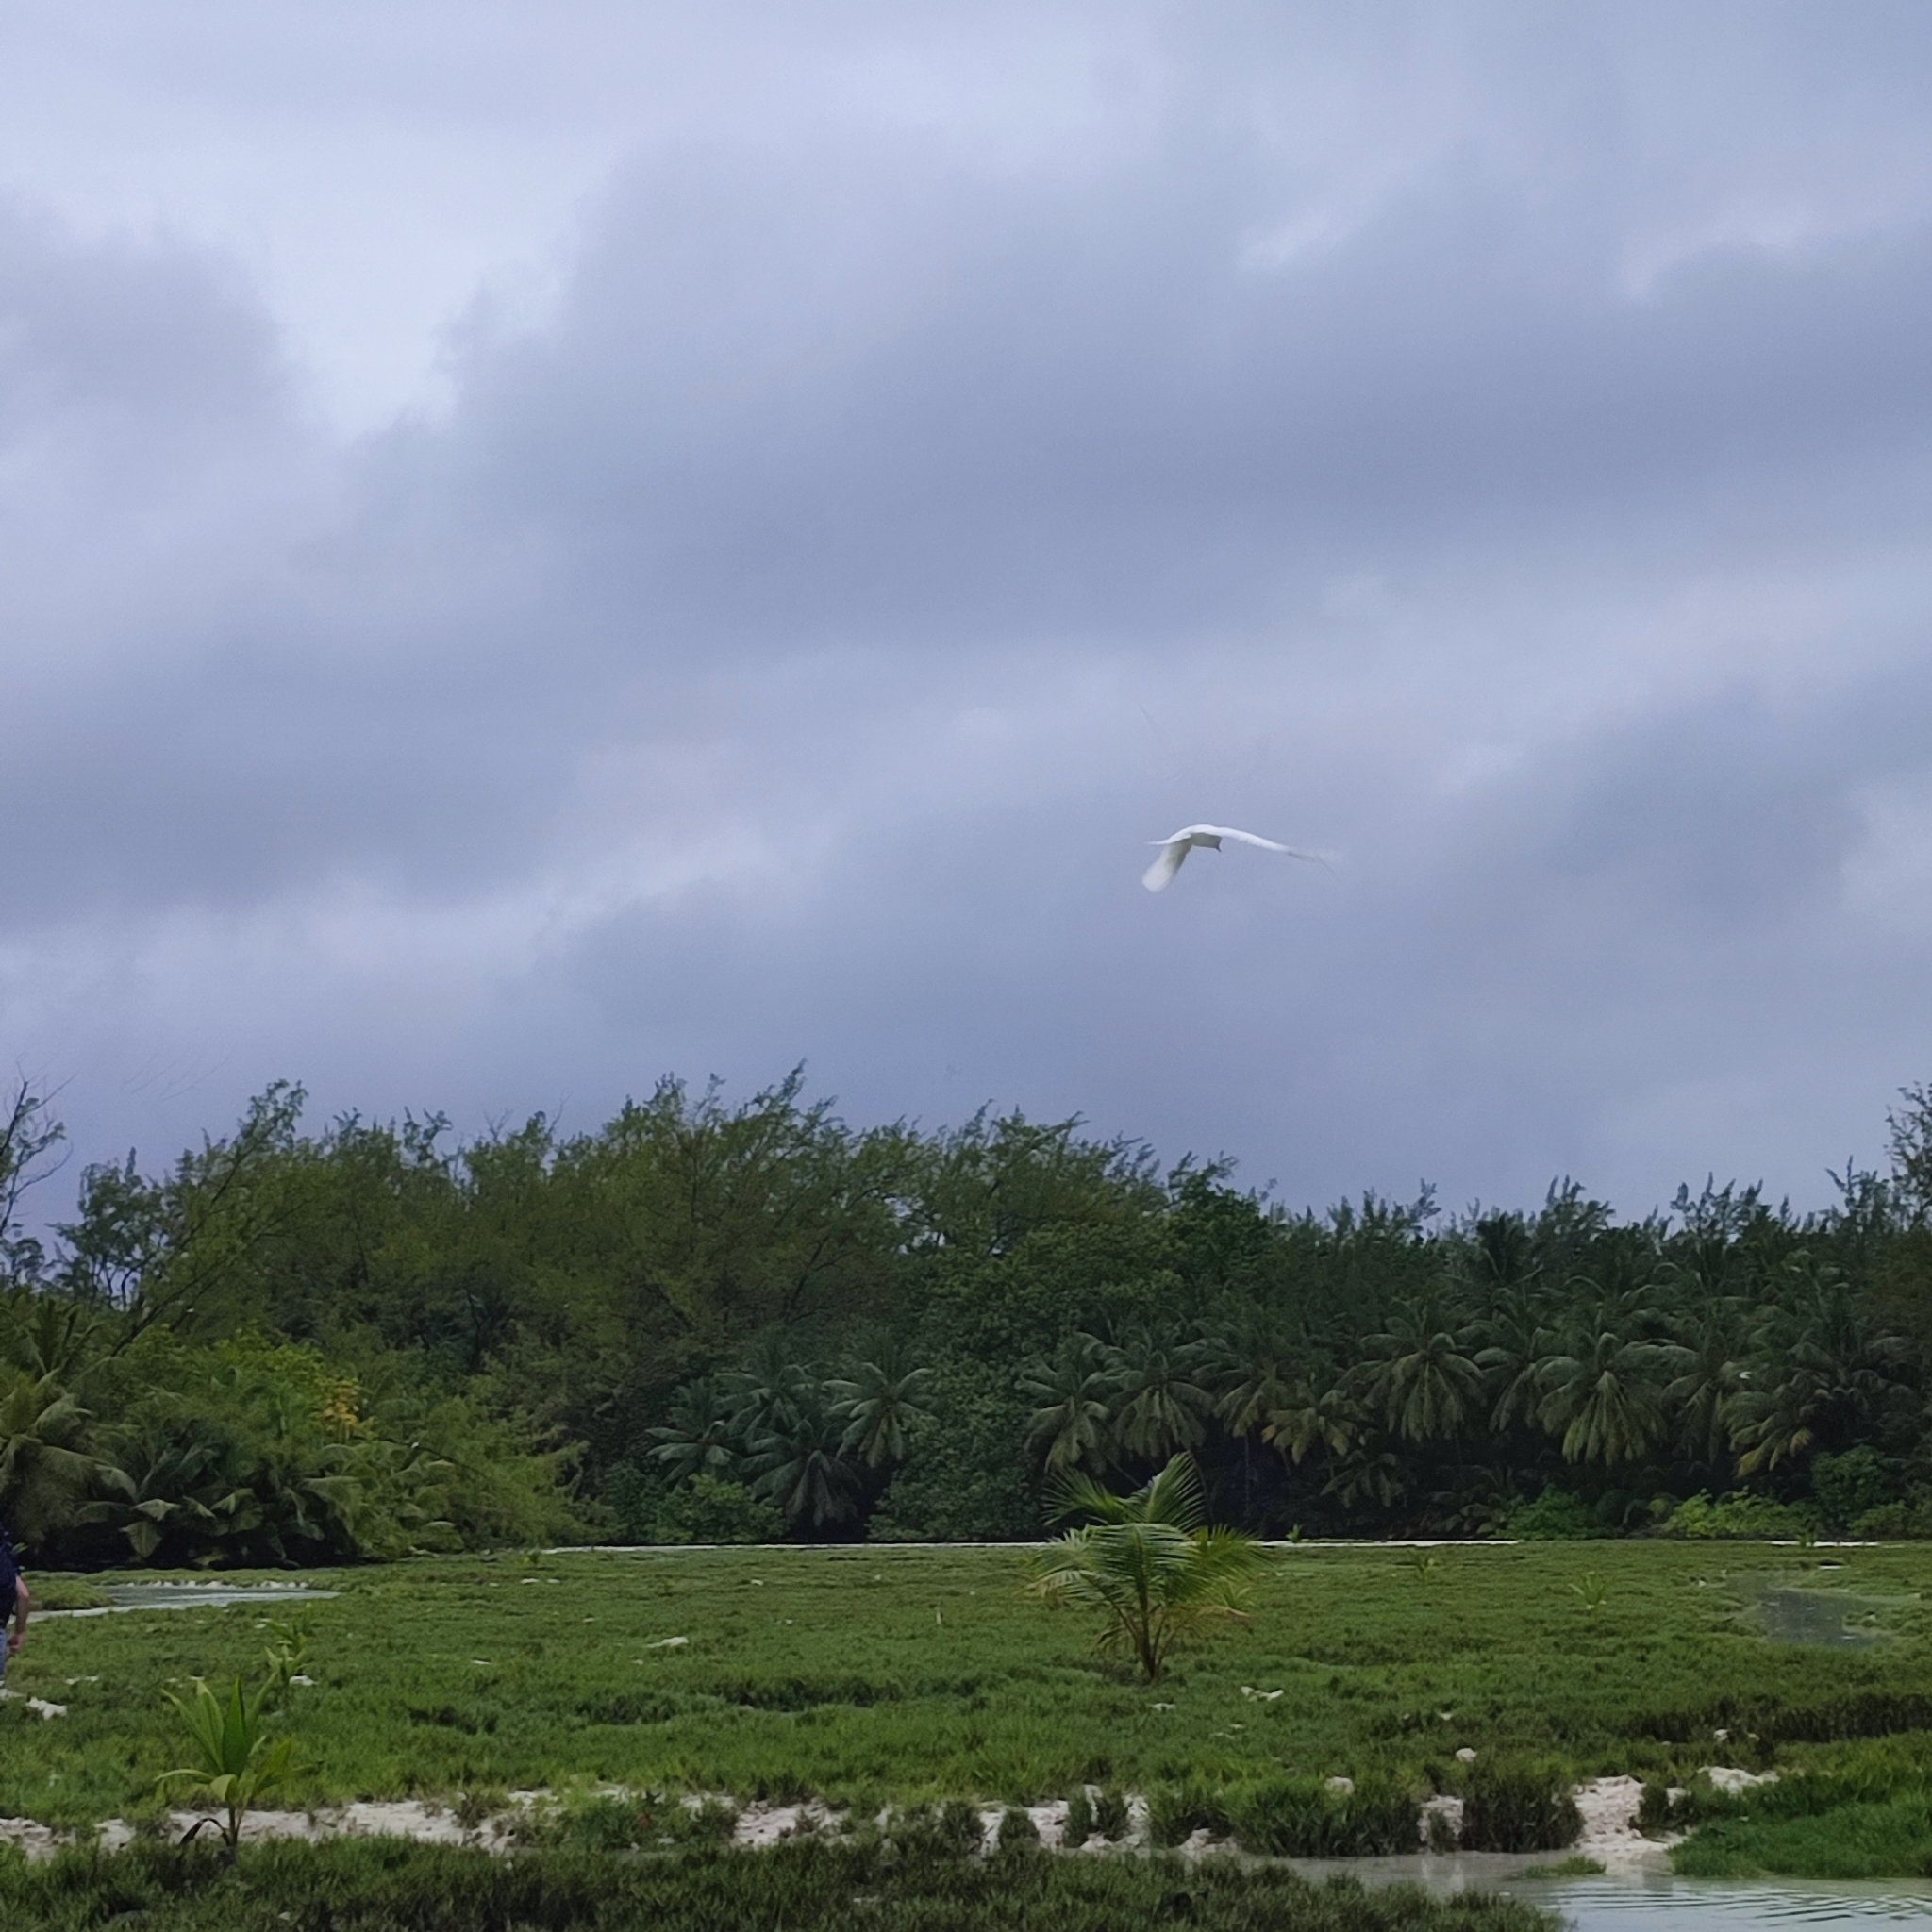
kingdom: Animalia
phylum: Chordata
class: Aves
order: Charadriiformes
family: Laridae
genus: Gygis
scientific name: Gygis alba
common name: White tern
